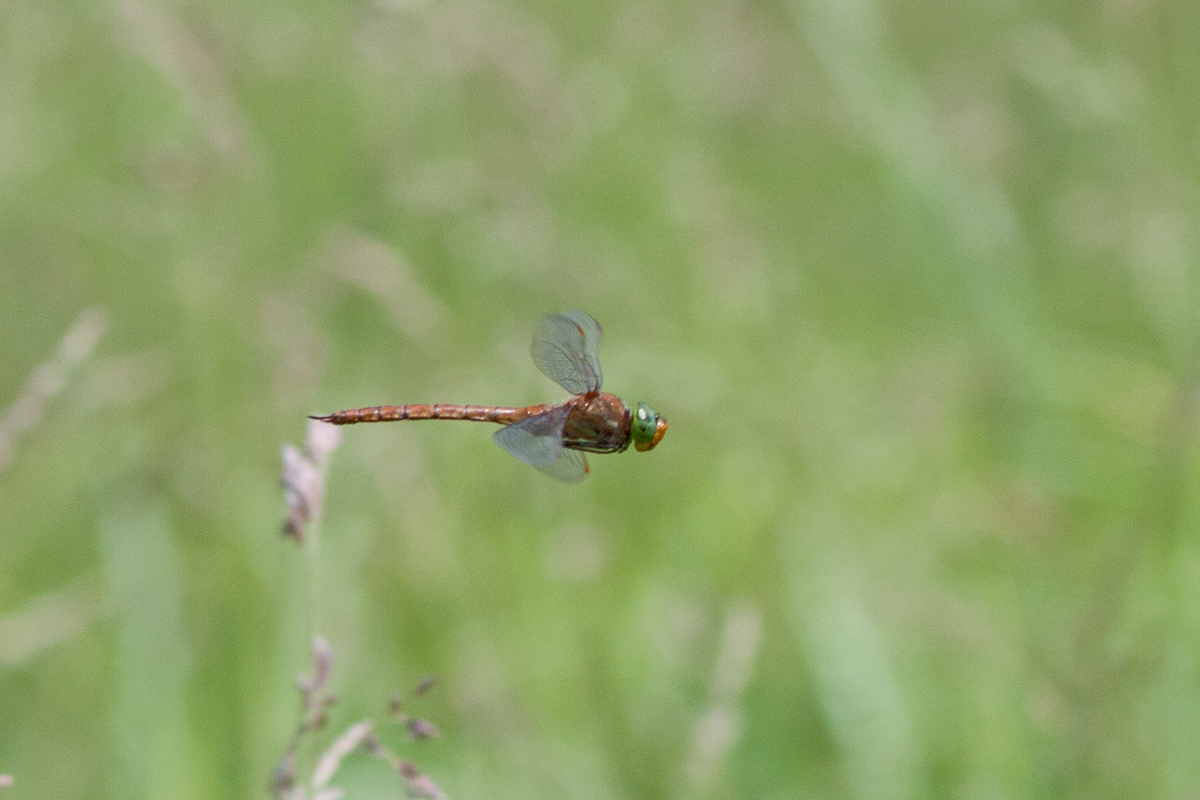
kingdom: Animalia
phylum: Arthropoda
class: Insecta
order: Odonata
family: Aeshnidae
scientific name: Aeshnidae
